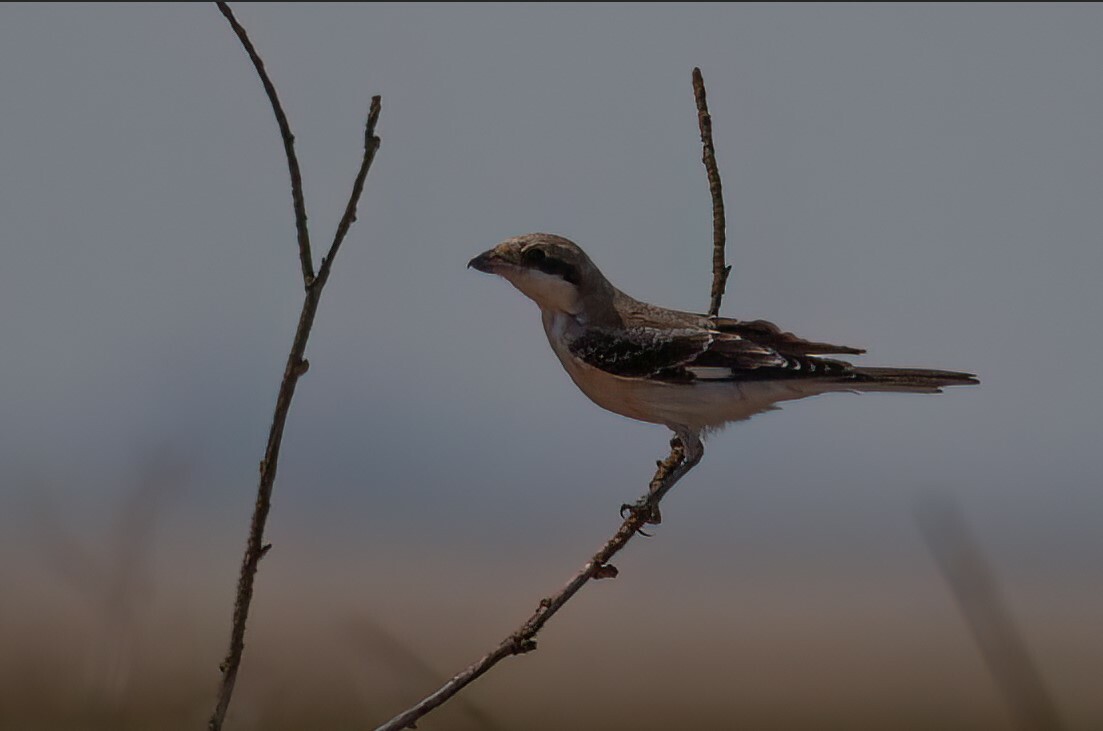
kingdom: Animalia
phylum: Chordata
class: Aves
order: Passeriformes
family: Laniidae
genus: Lanius
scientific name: Lanius minor
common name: Lesser grey shrike
